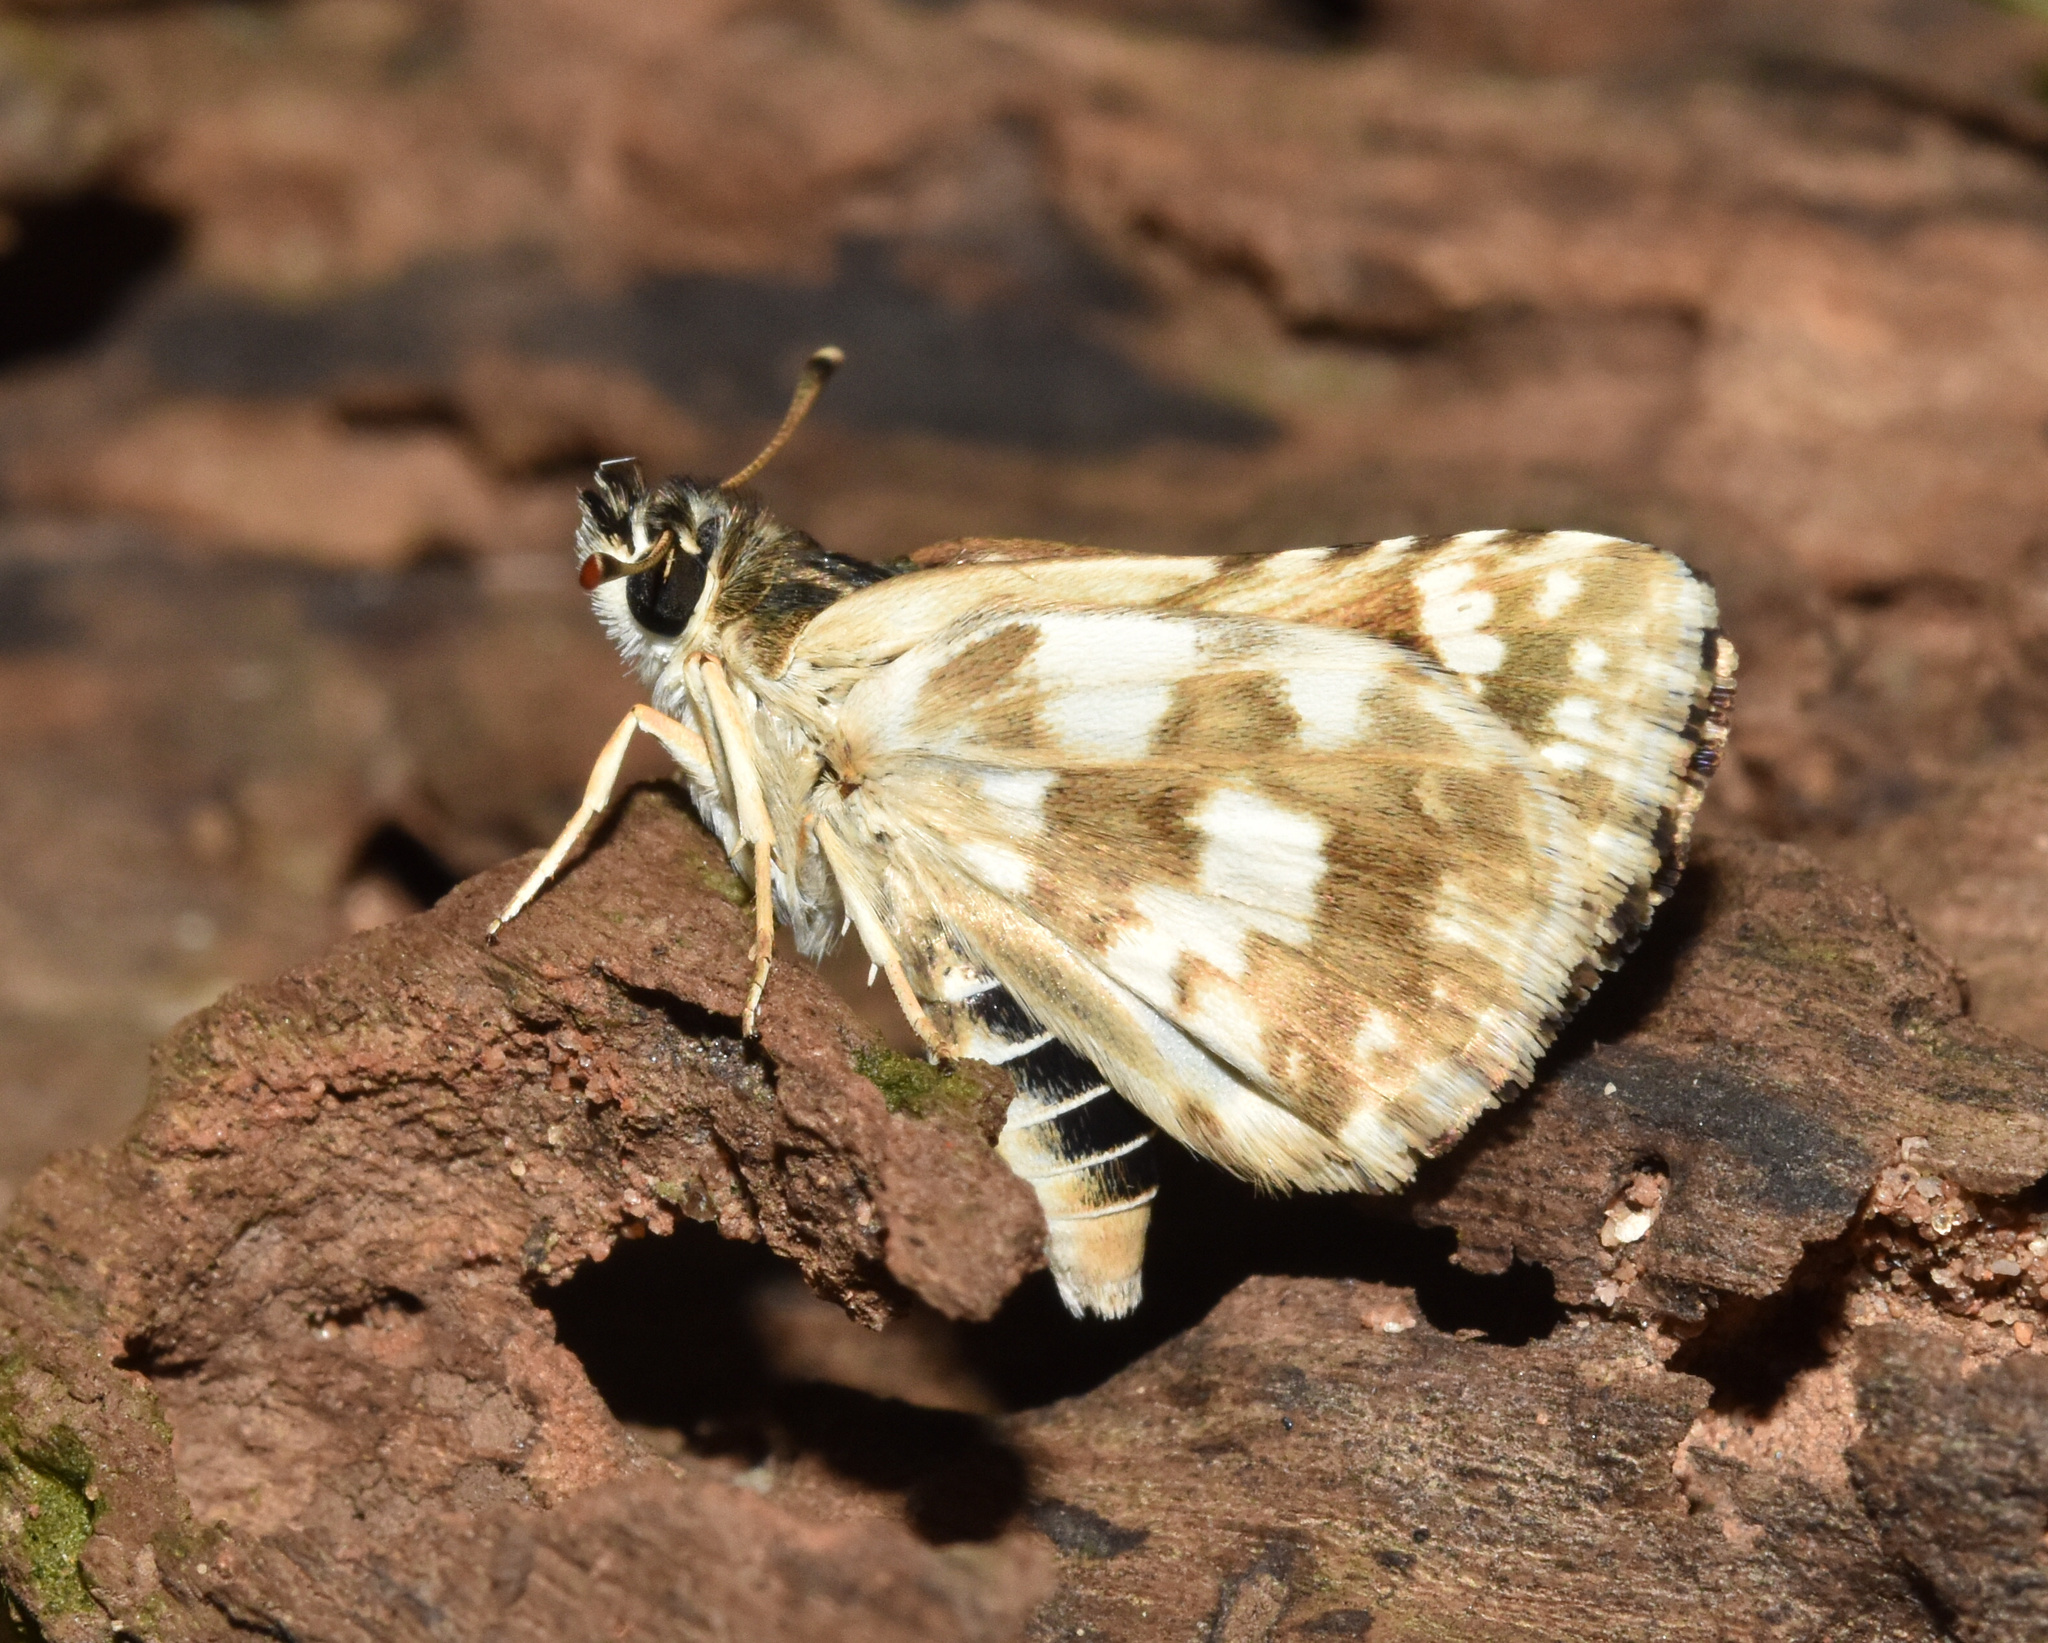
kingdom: Animalia
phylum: Arthropoda
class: Insecta
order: Lepidoptera
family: Hesperiidae
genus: Spialia
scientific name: Spialia spio
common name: Mountain sandman
